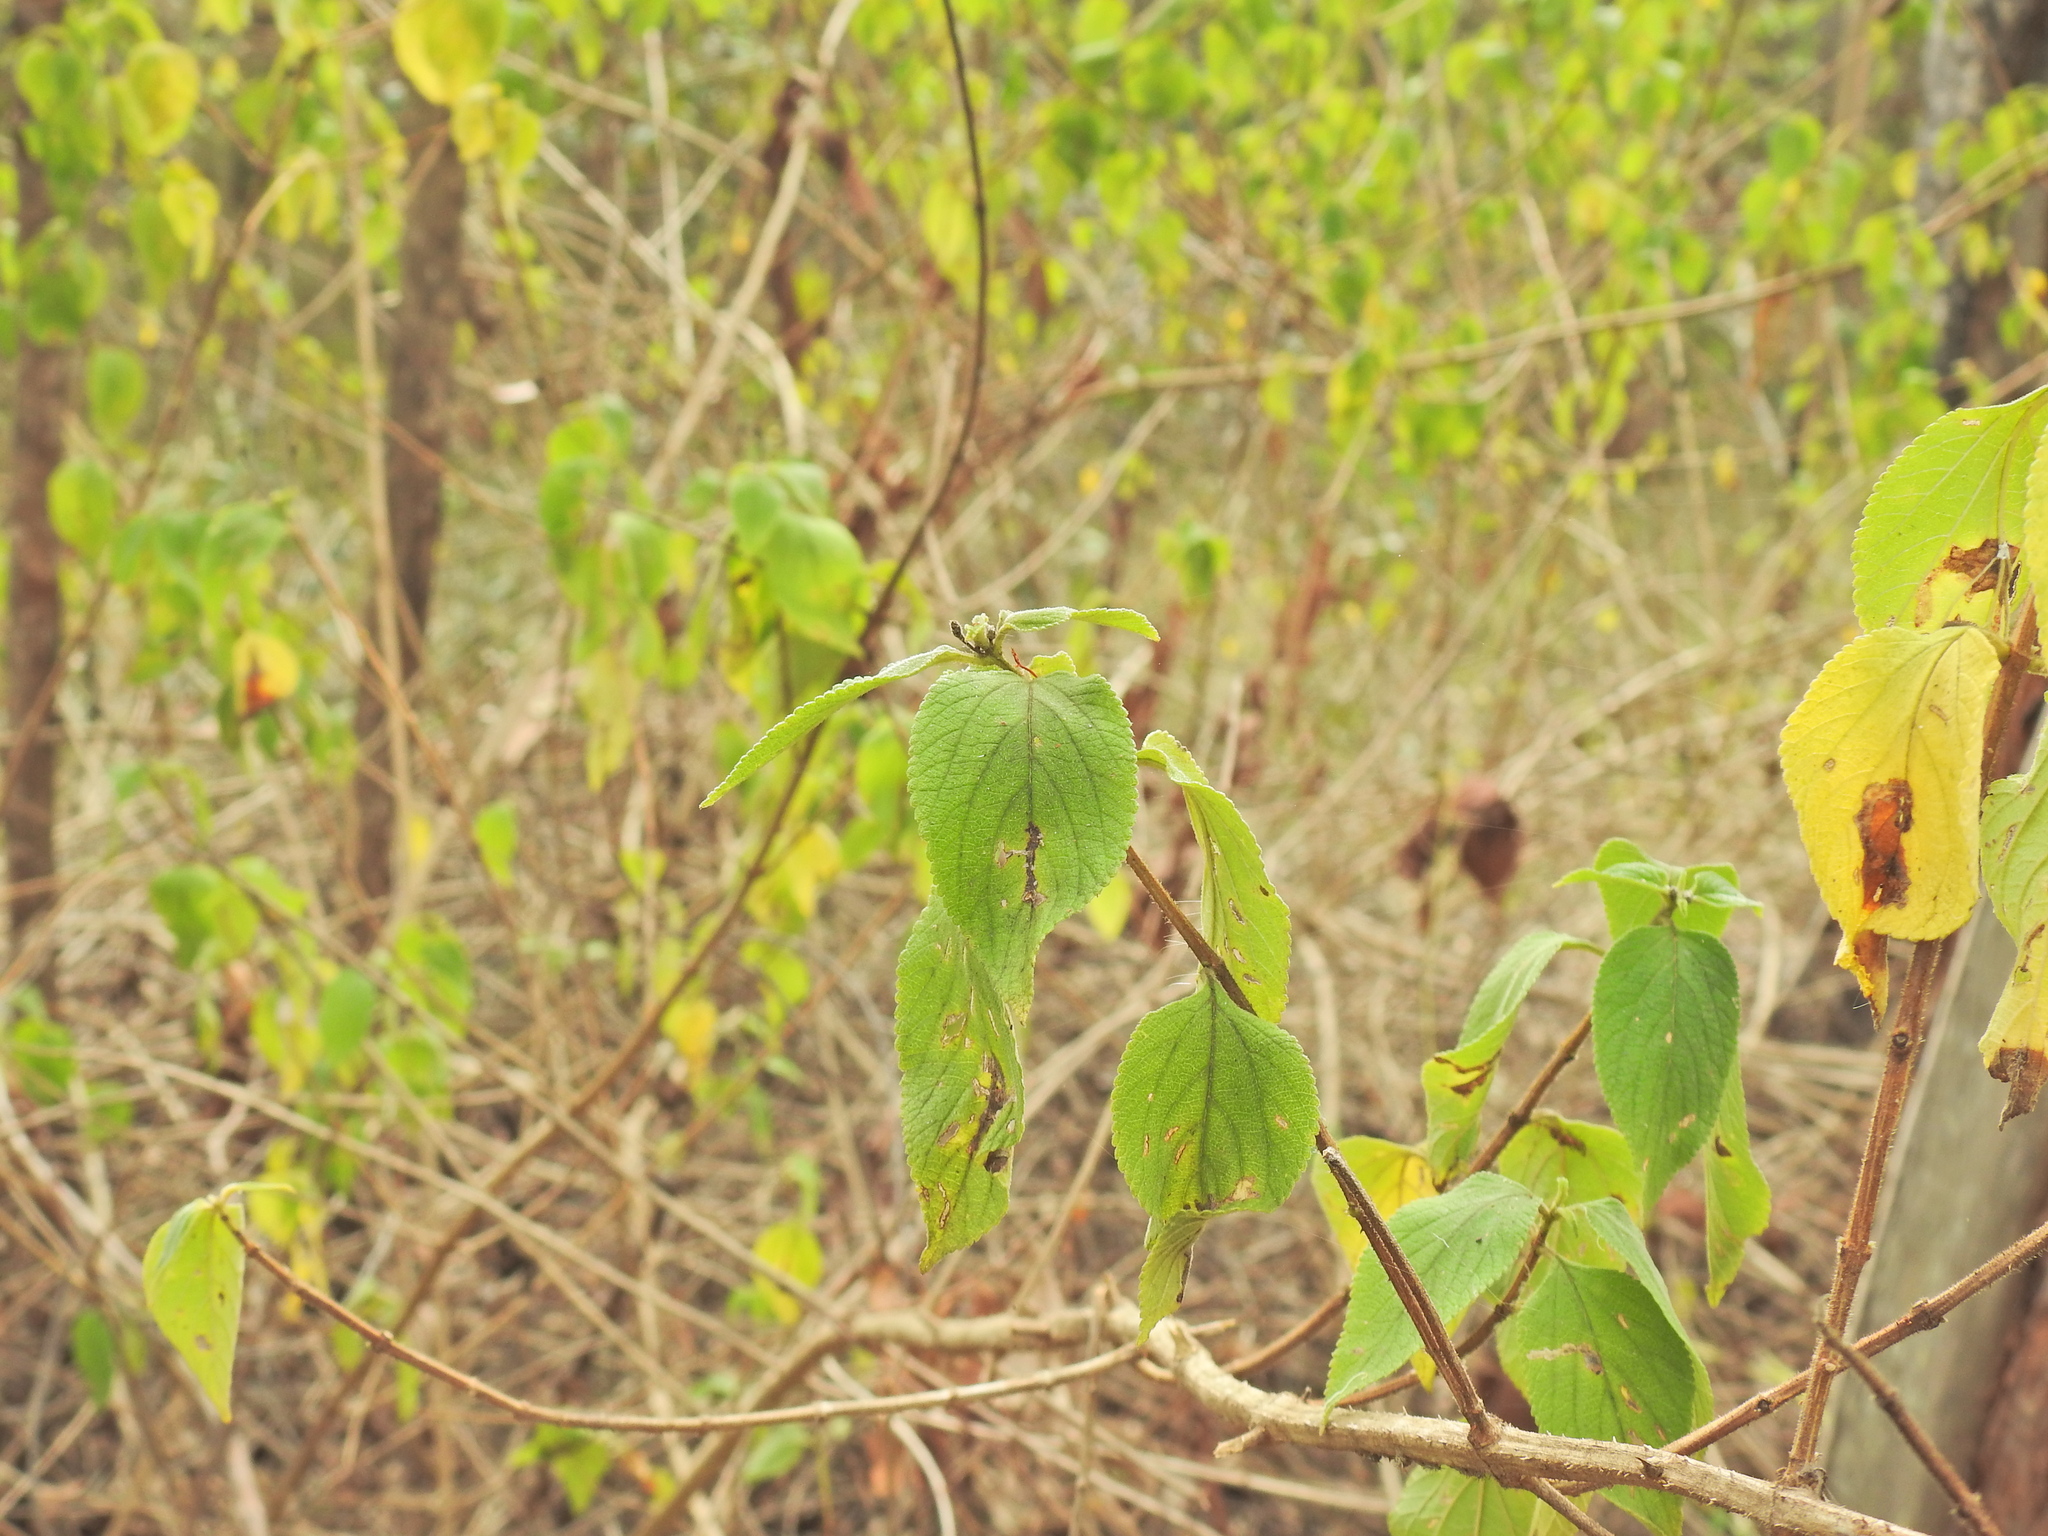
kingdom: Plantae
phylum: Tracheophyta
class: Magnoliopsida
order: Lamiales
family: Verbenaceae
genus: Lantana
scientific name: Lantana camara
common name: Lantana
